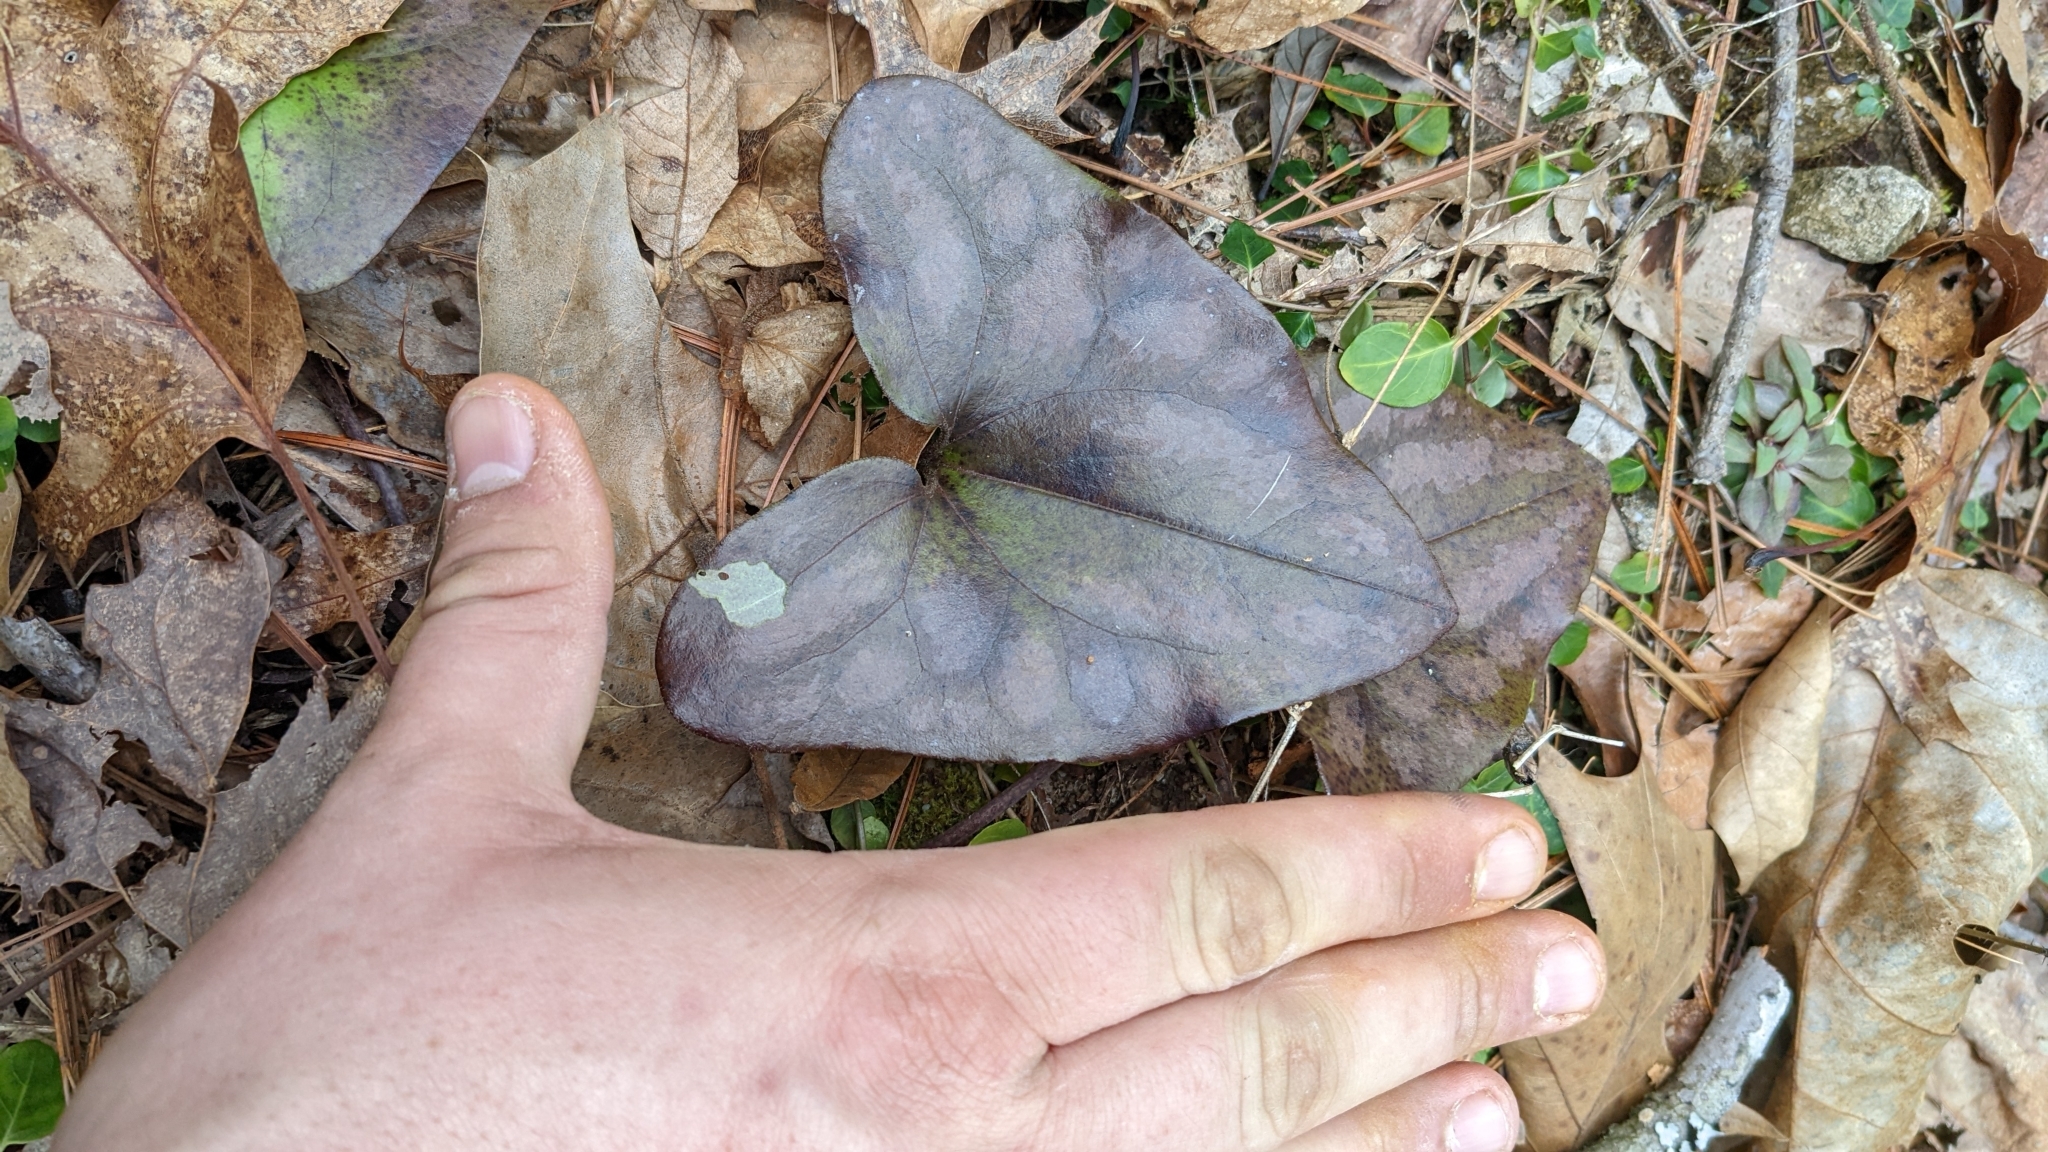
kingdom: Plantae
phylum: Tracheophyta
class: Magnoliopsida
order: Piperales
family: Aristolochiaceae
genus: Hexastylis
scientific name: Hexastylis arifolia
